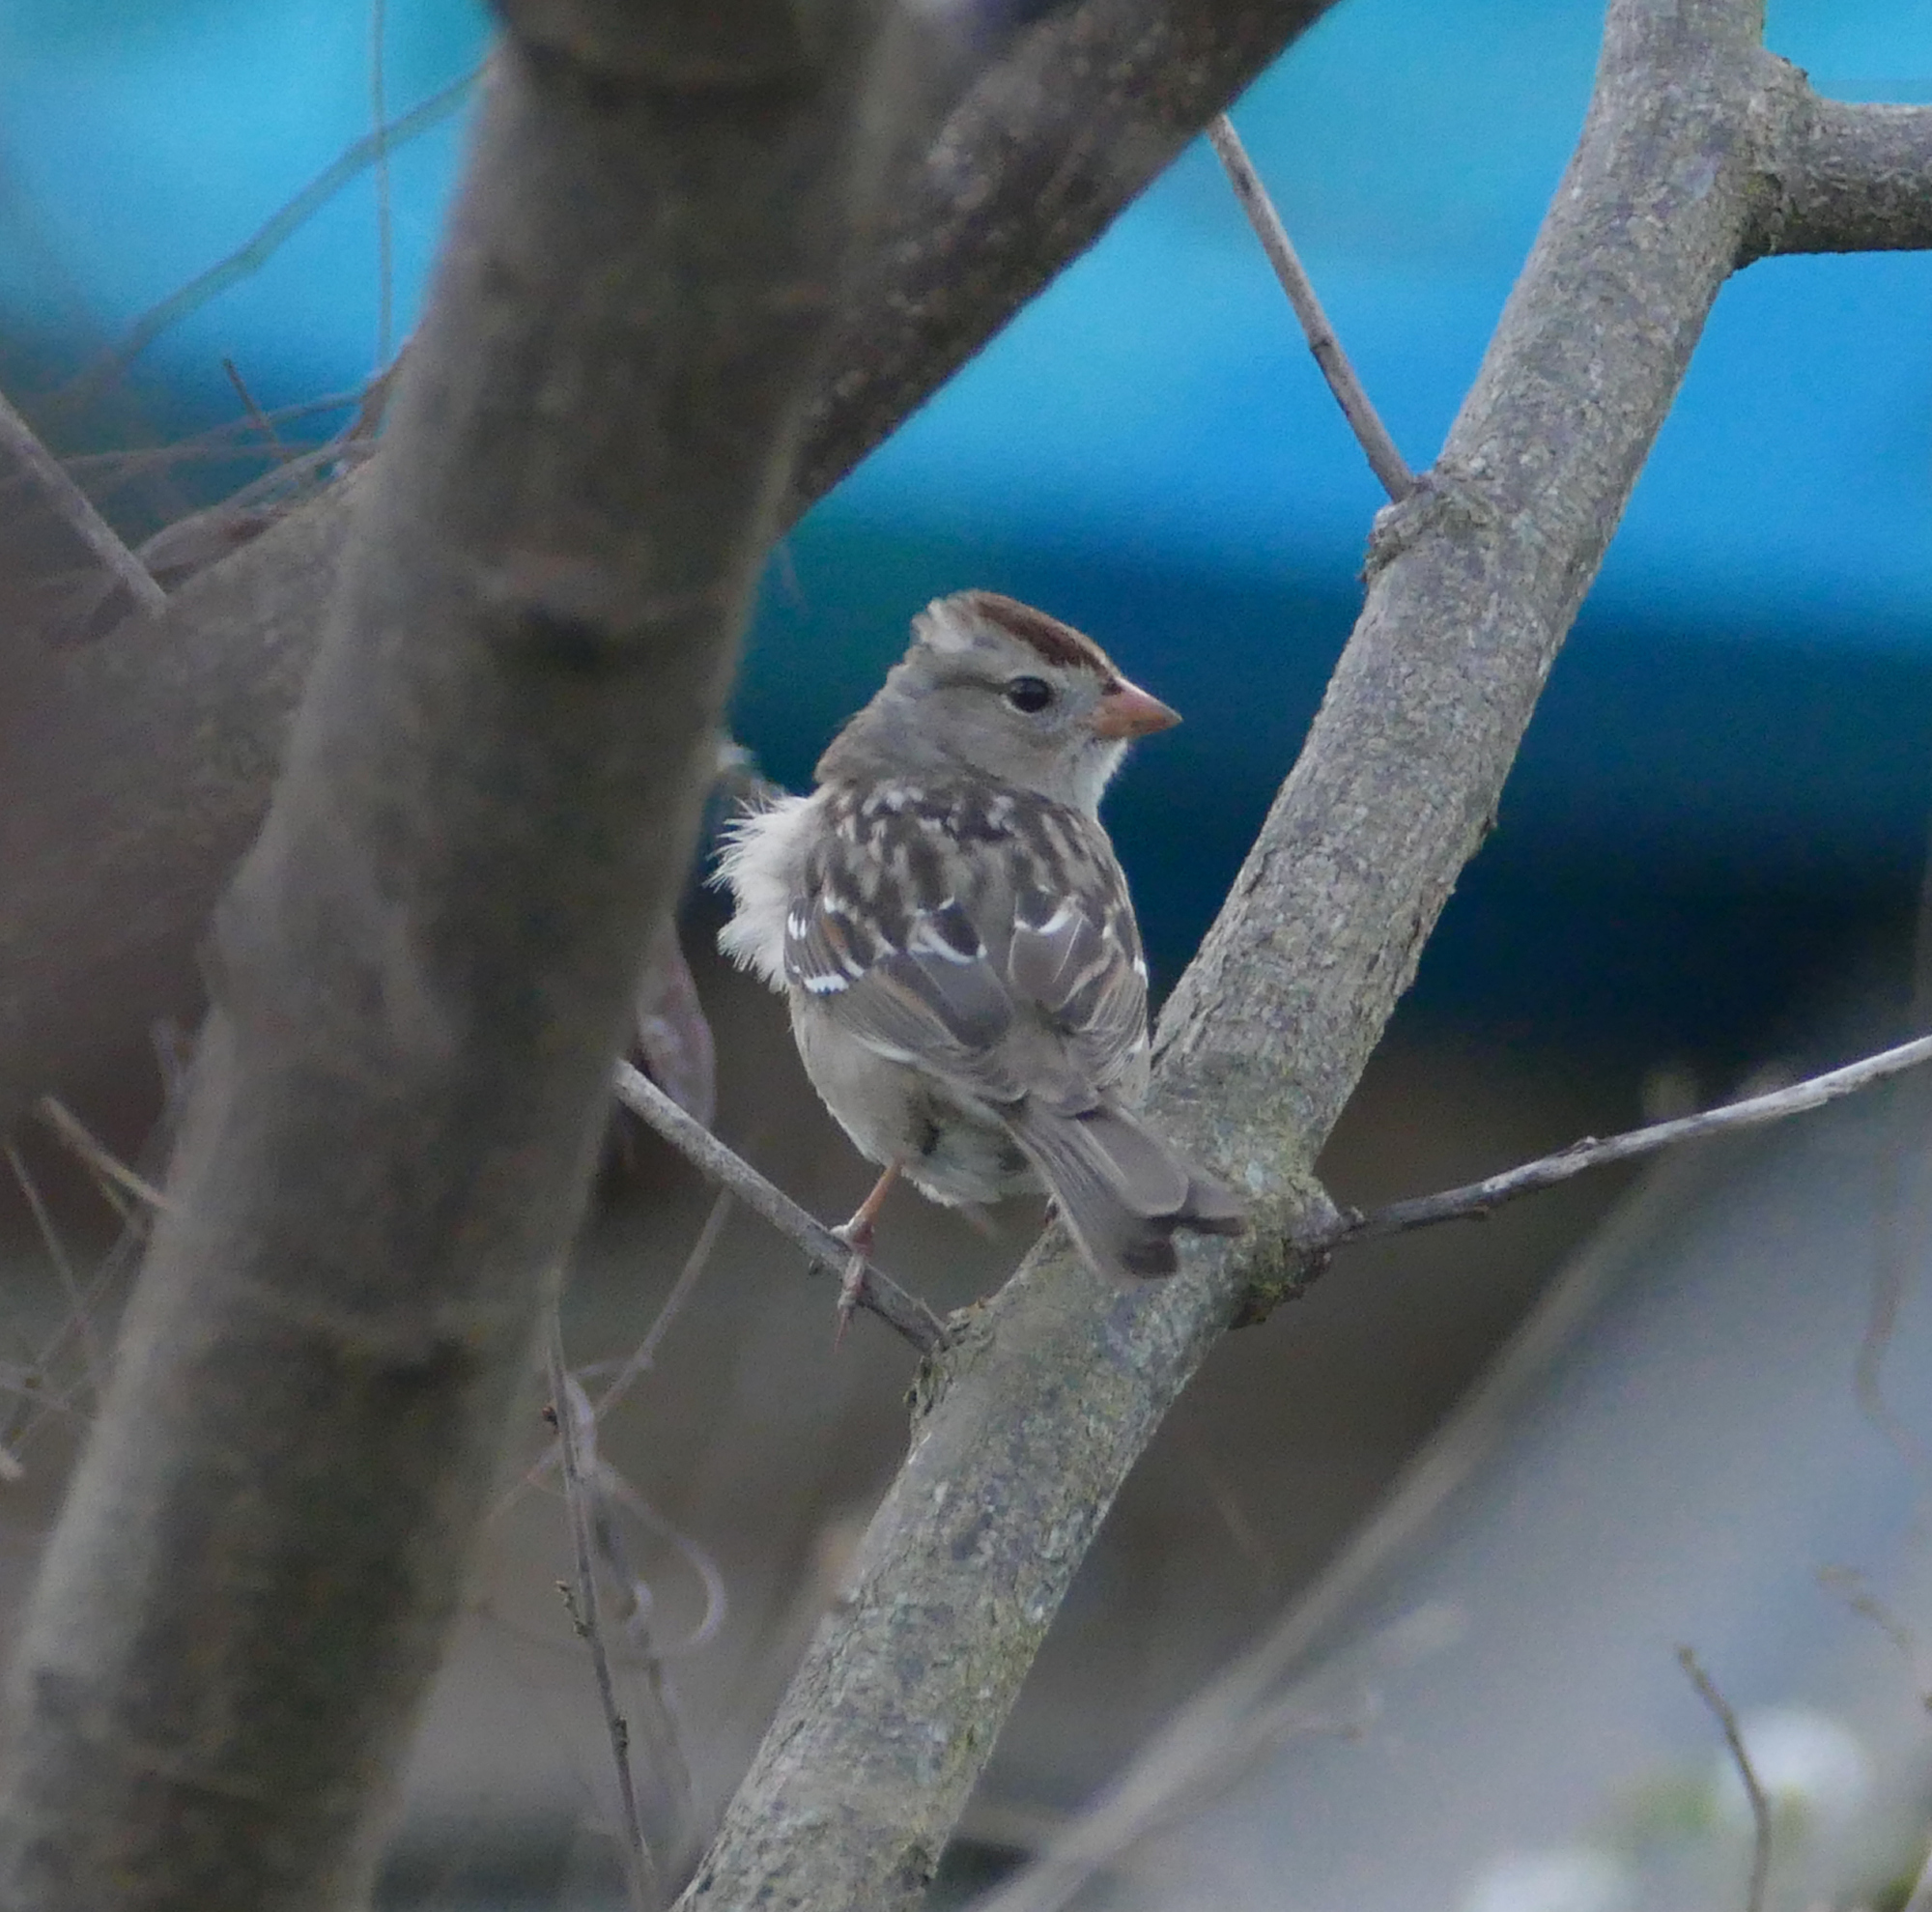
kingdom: Animalia
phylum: Chordata
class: Aves
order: Passeriformes
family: Passerellidae
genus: Zonotrichia
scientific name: Zonotrichia leucophrys
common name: White-crowned sparrow
